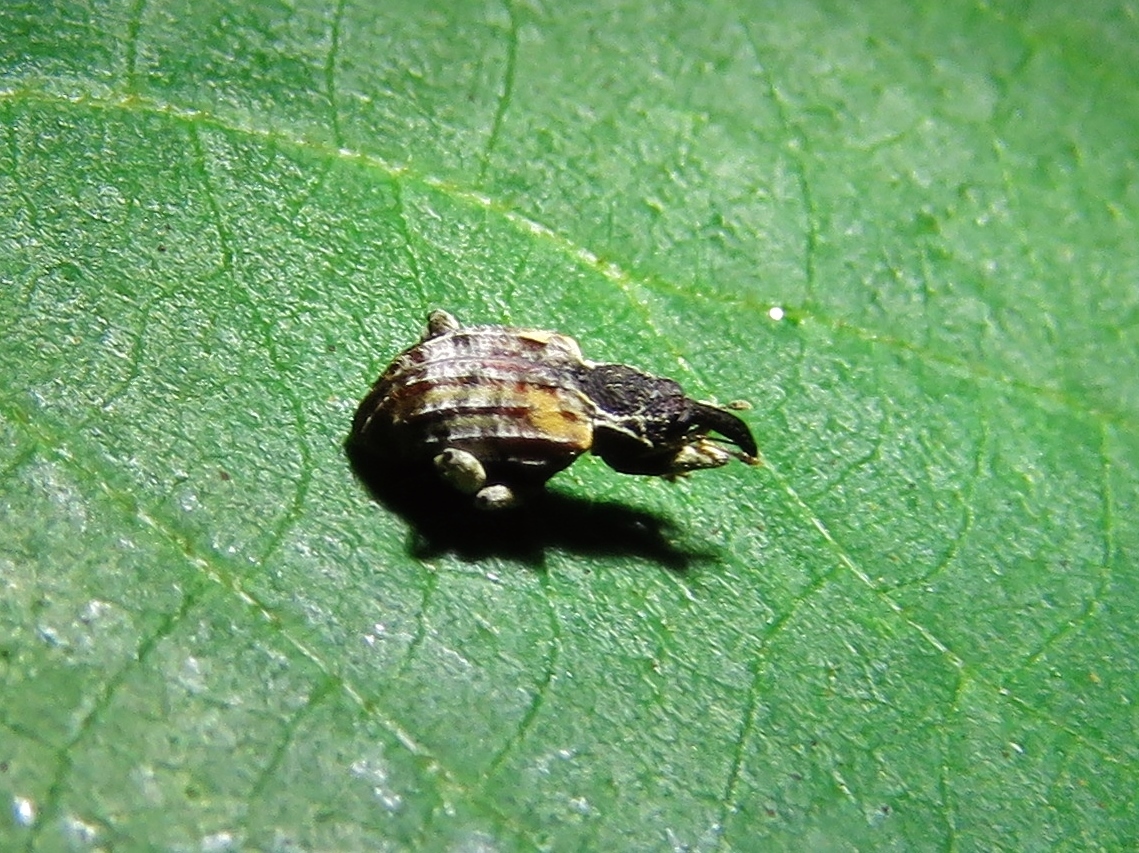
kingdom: Animalia
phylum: Arthropoda
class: Insecta
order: Coleoptera
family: Curculionidae
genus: Conotrachelus
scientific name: Conotrachelus anaglypticus
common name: Cambium curculio
